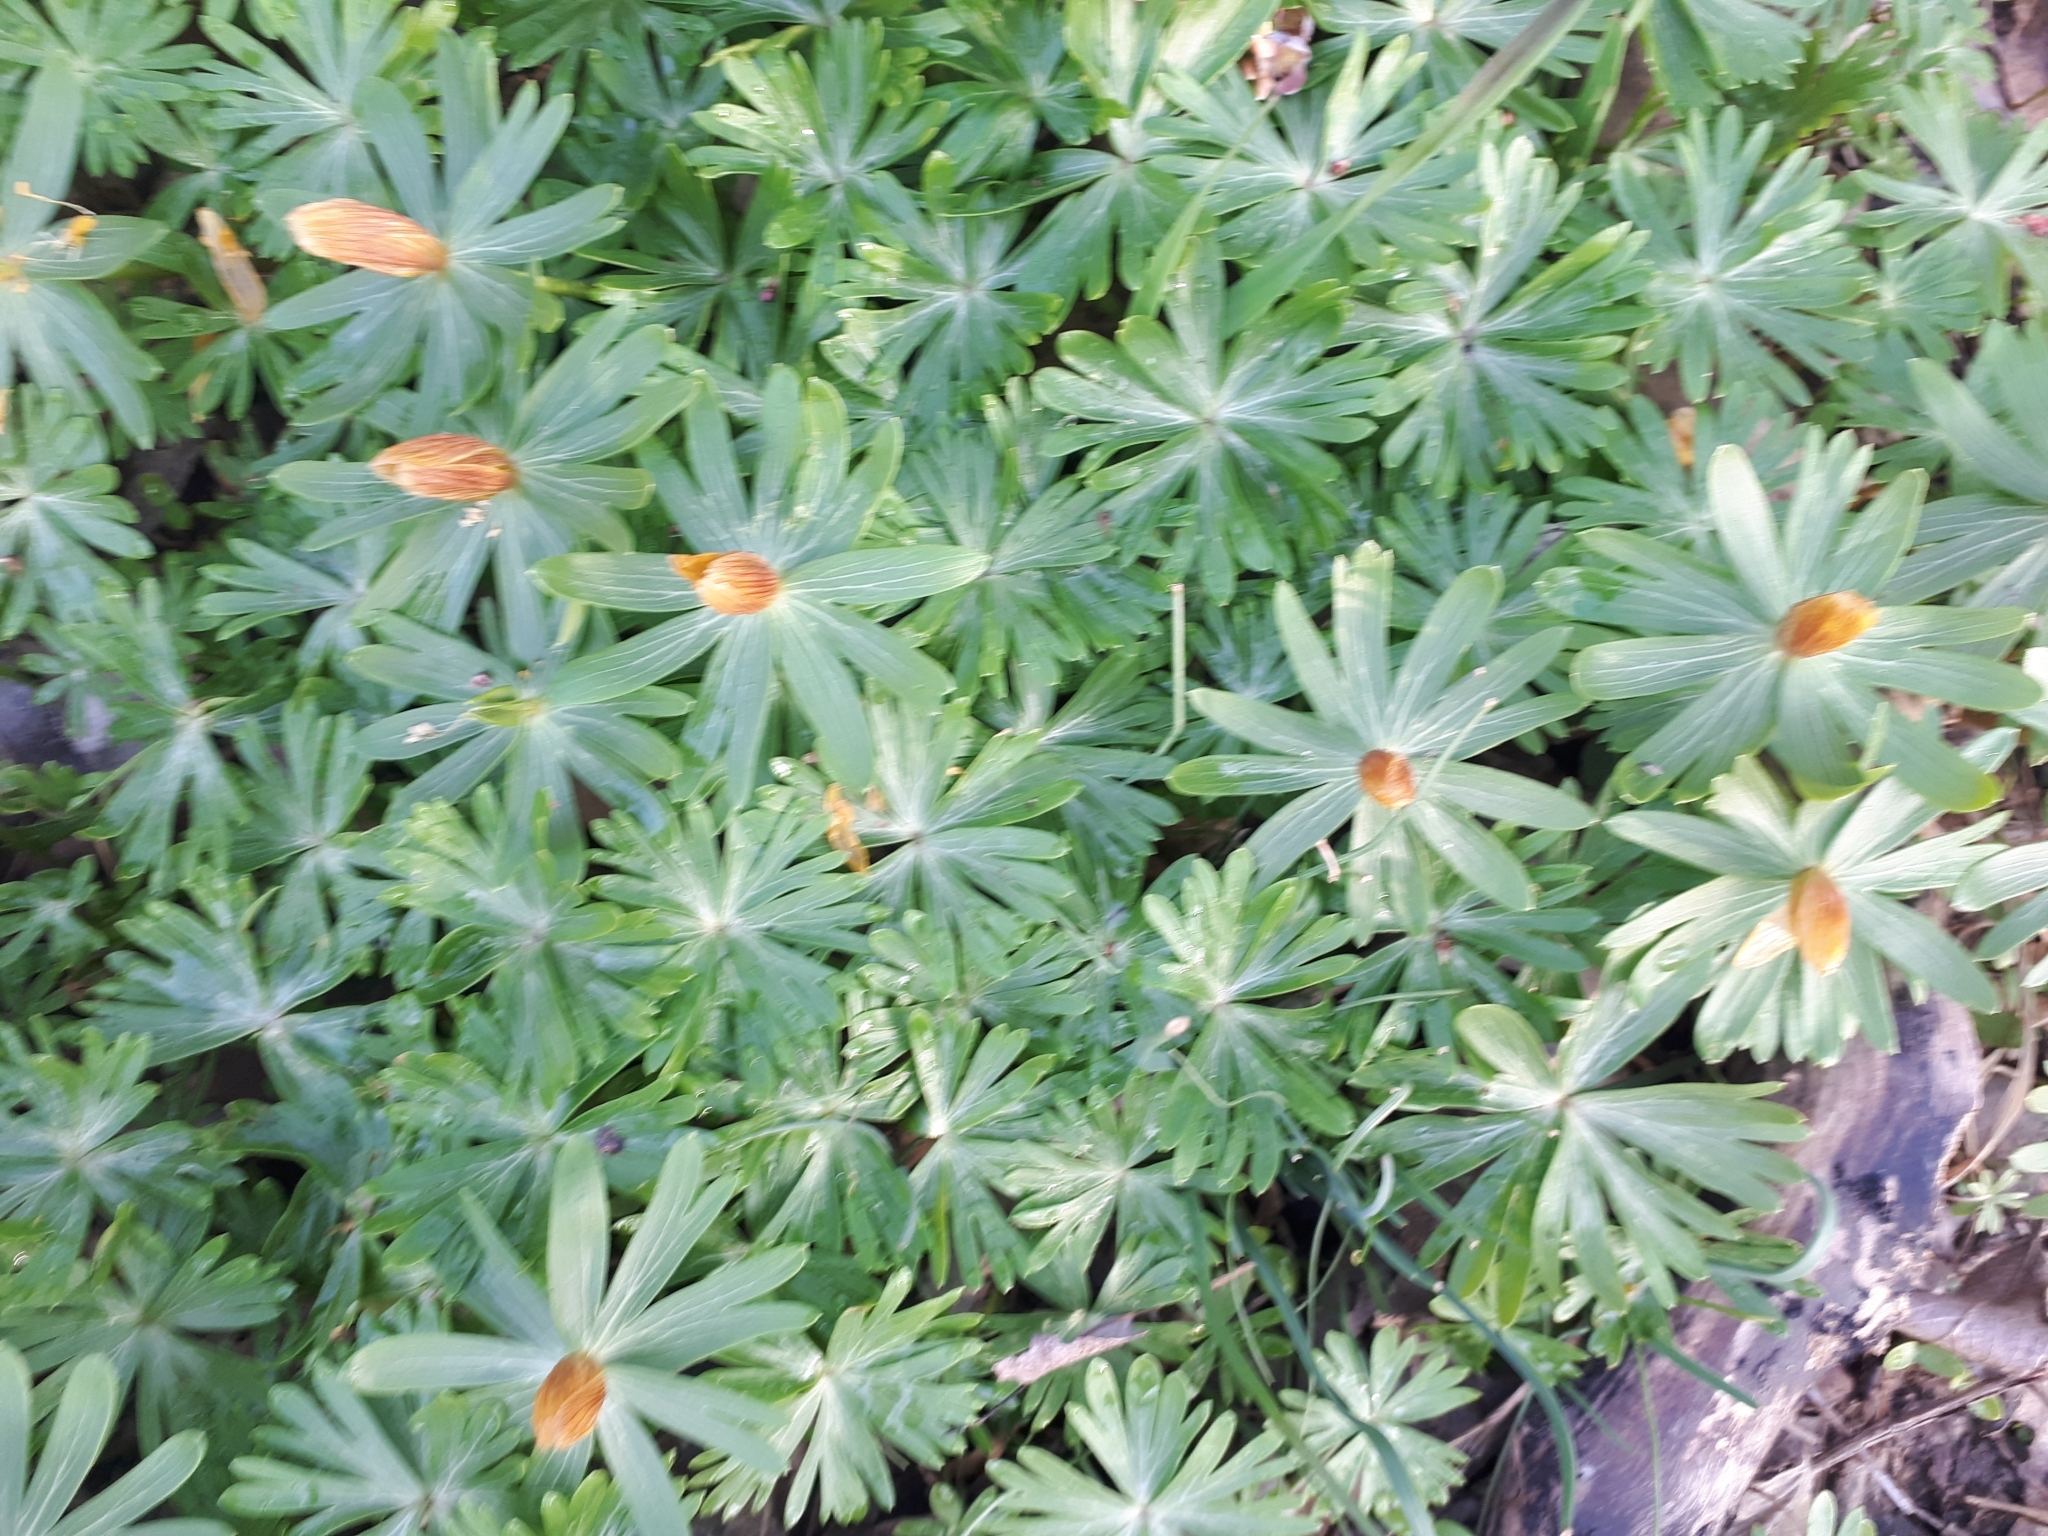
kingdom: Plantae
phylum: Tracheophyta
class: Magnoliopsida
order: Ranunculales
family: Ranunculaceae
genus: Eranthis
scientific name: Eranthis hyemalis
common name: Winter aconite
